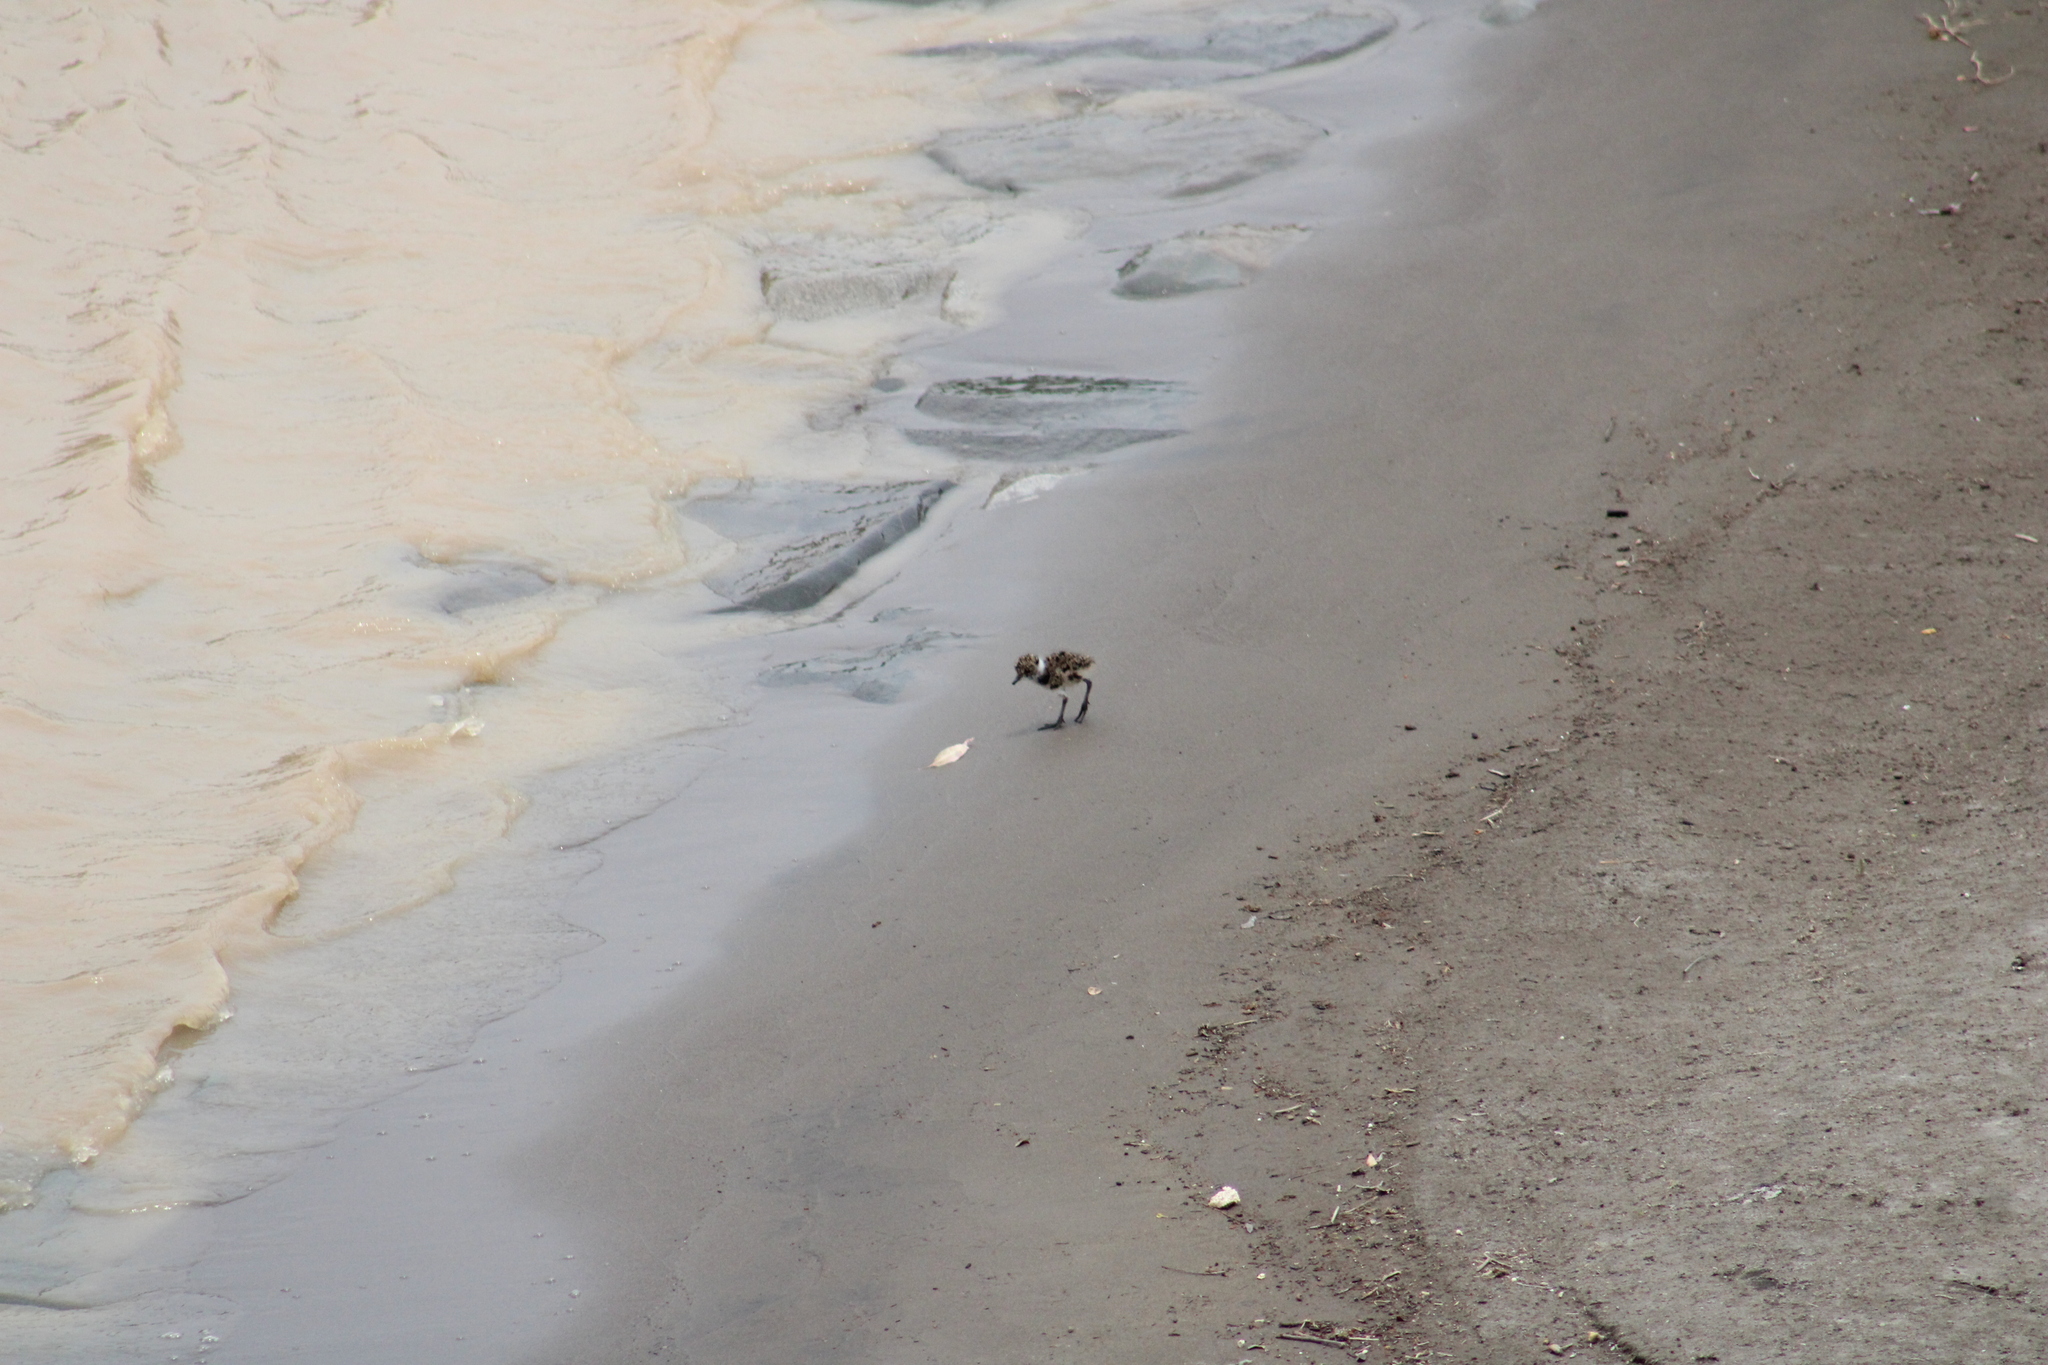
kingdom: Animalia
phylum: Chordata
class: Aves
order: Charadriiformes
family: Charadriidae
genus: Vanellus
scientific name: Vanellus chilensis
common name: Southern lapwing
